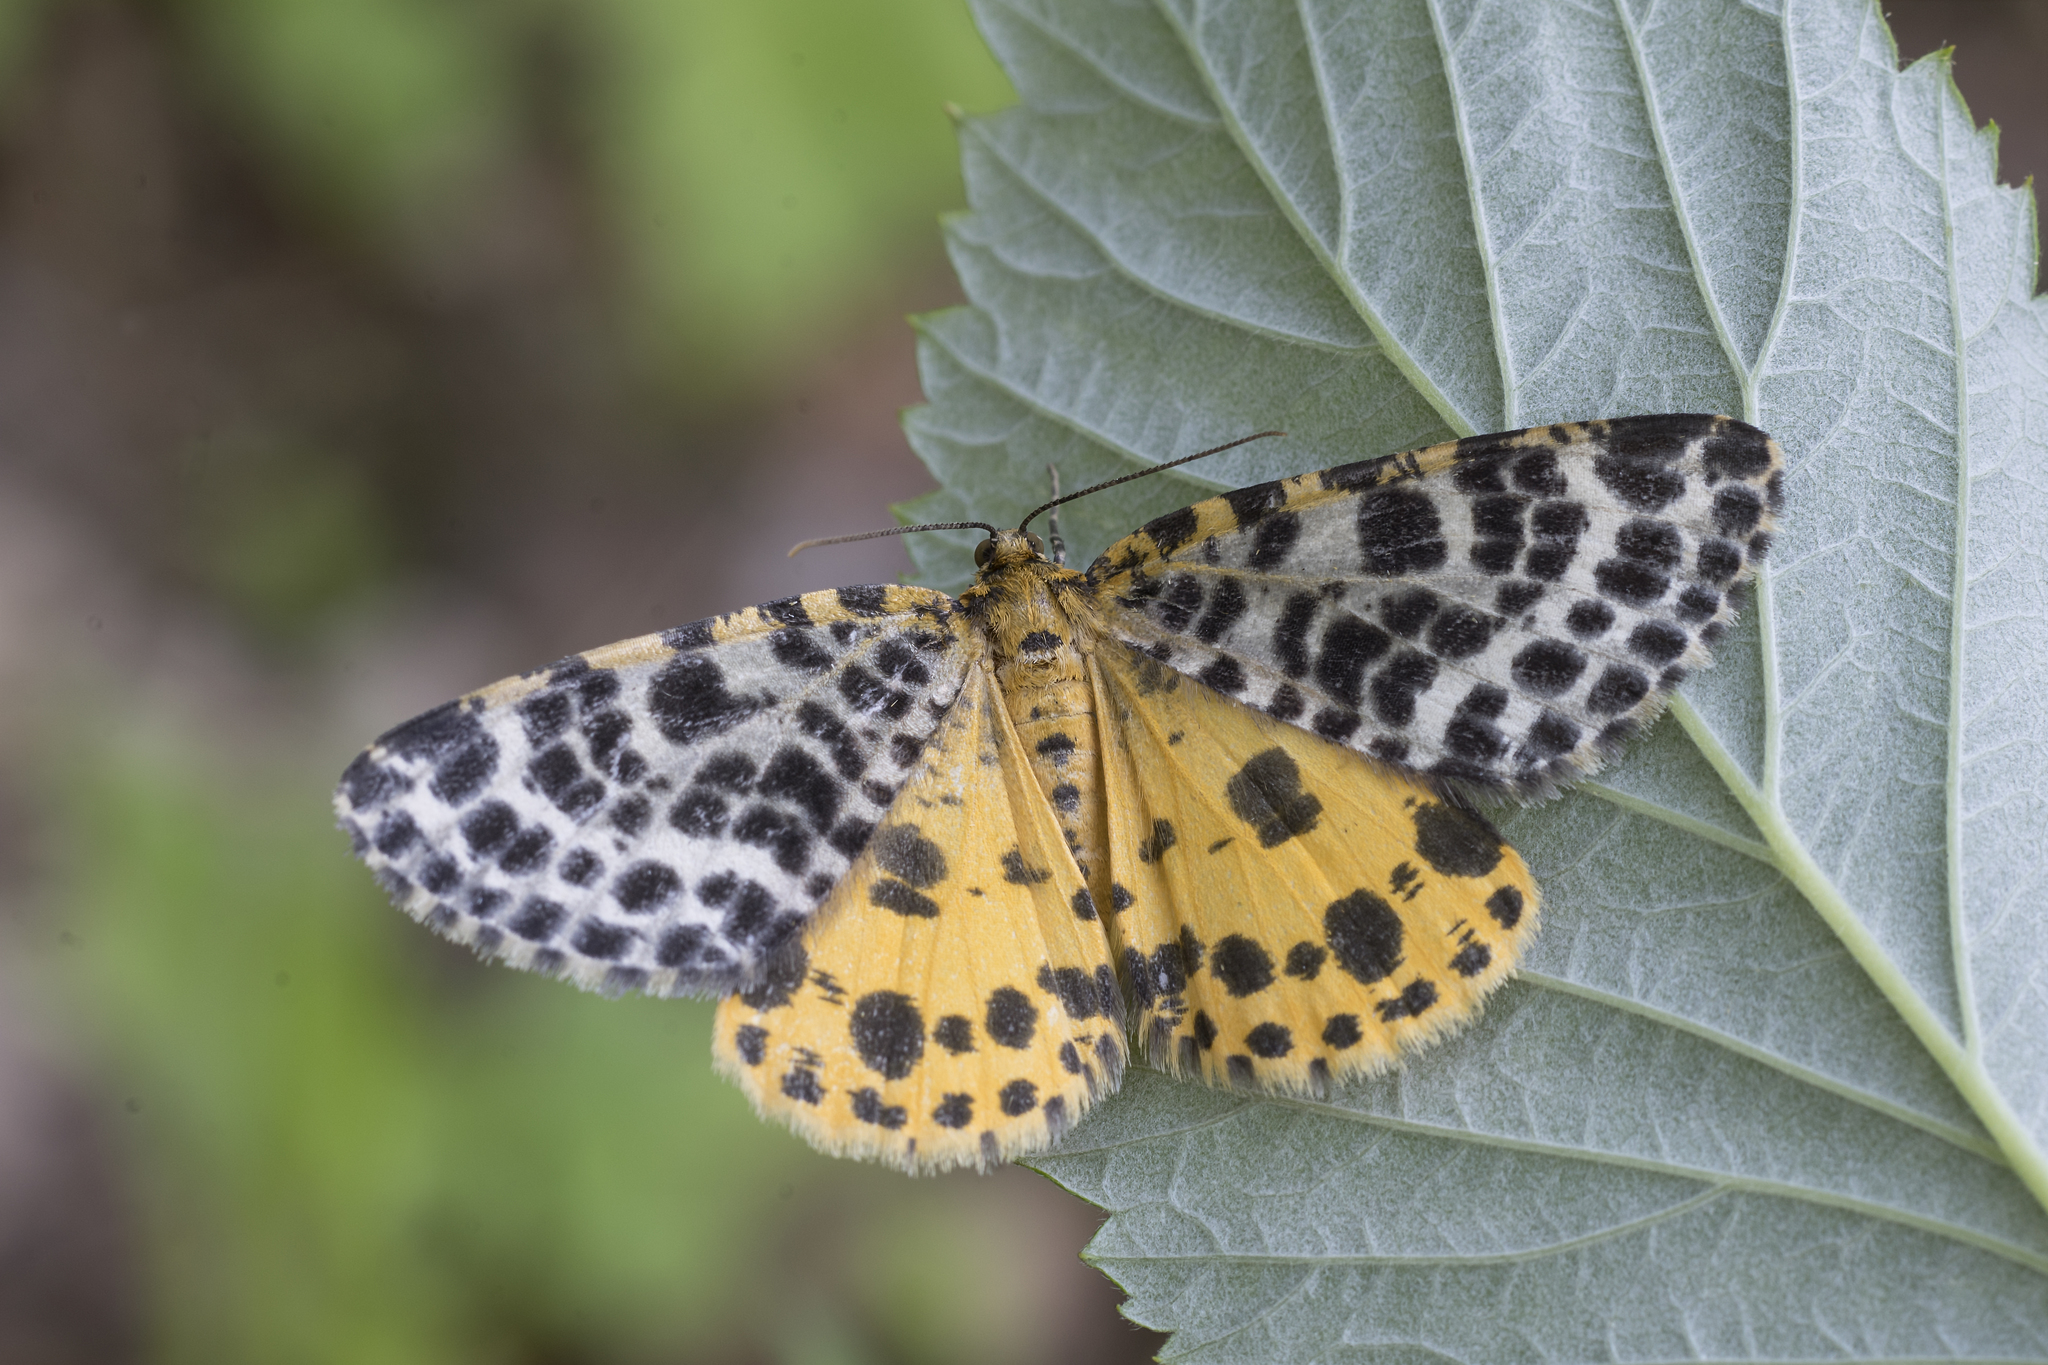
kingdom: Animalia
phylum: Arthropoda
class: Insecta
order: Lepidoptera
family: Geometridae
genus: Arichanna
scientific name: Arichanna melanaria
